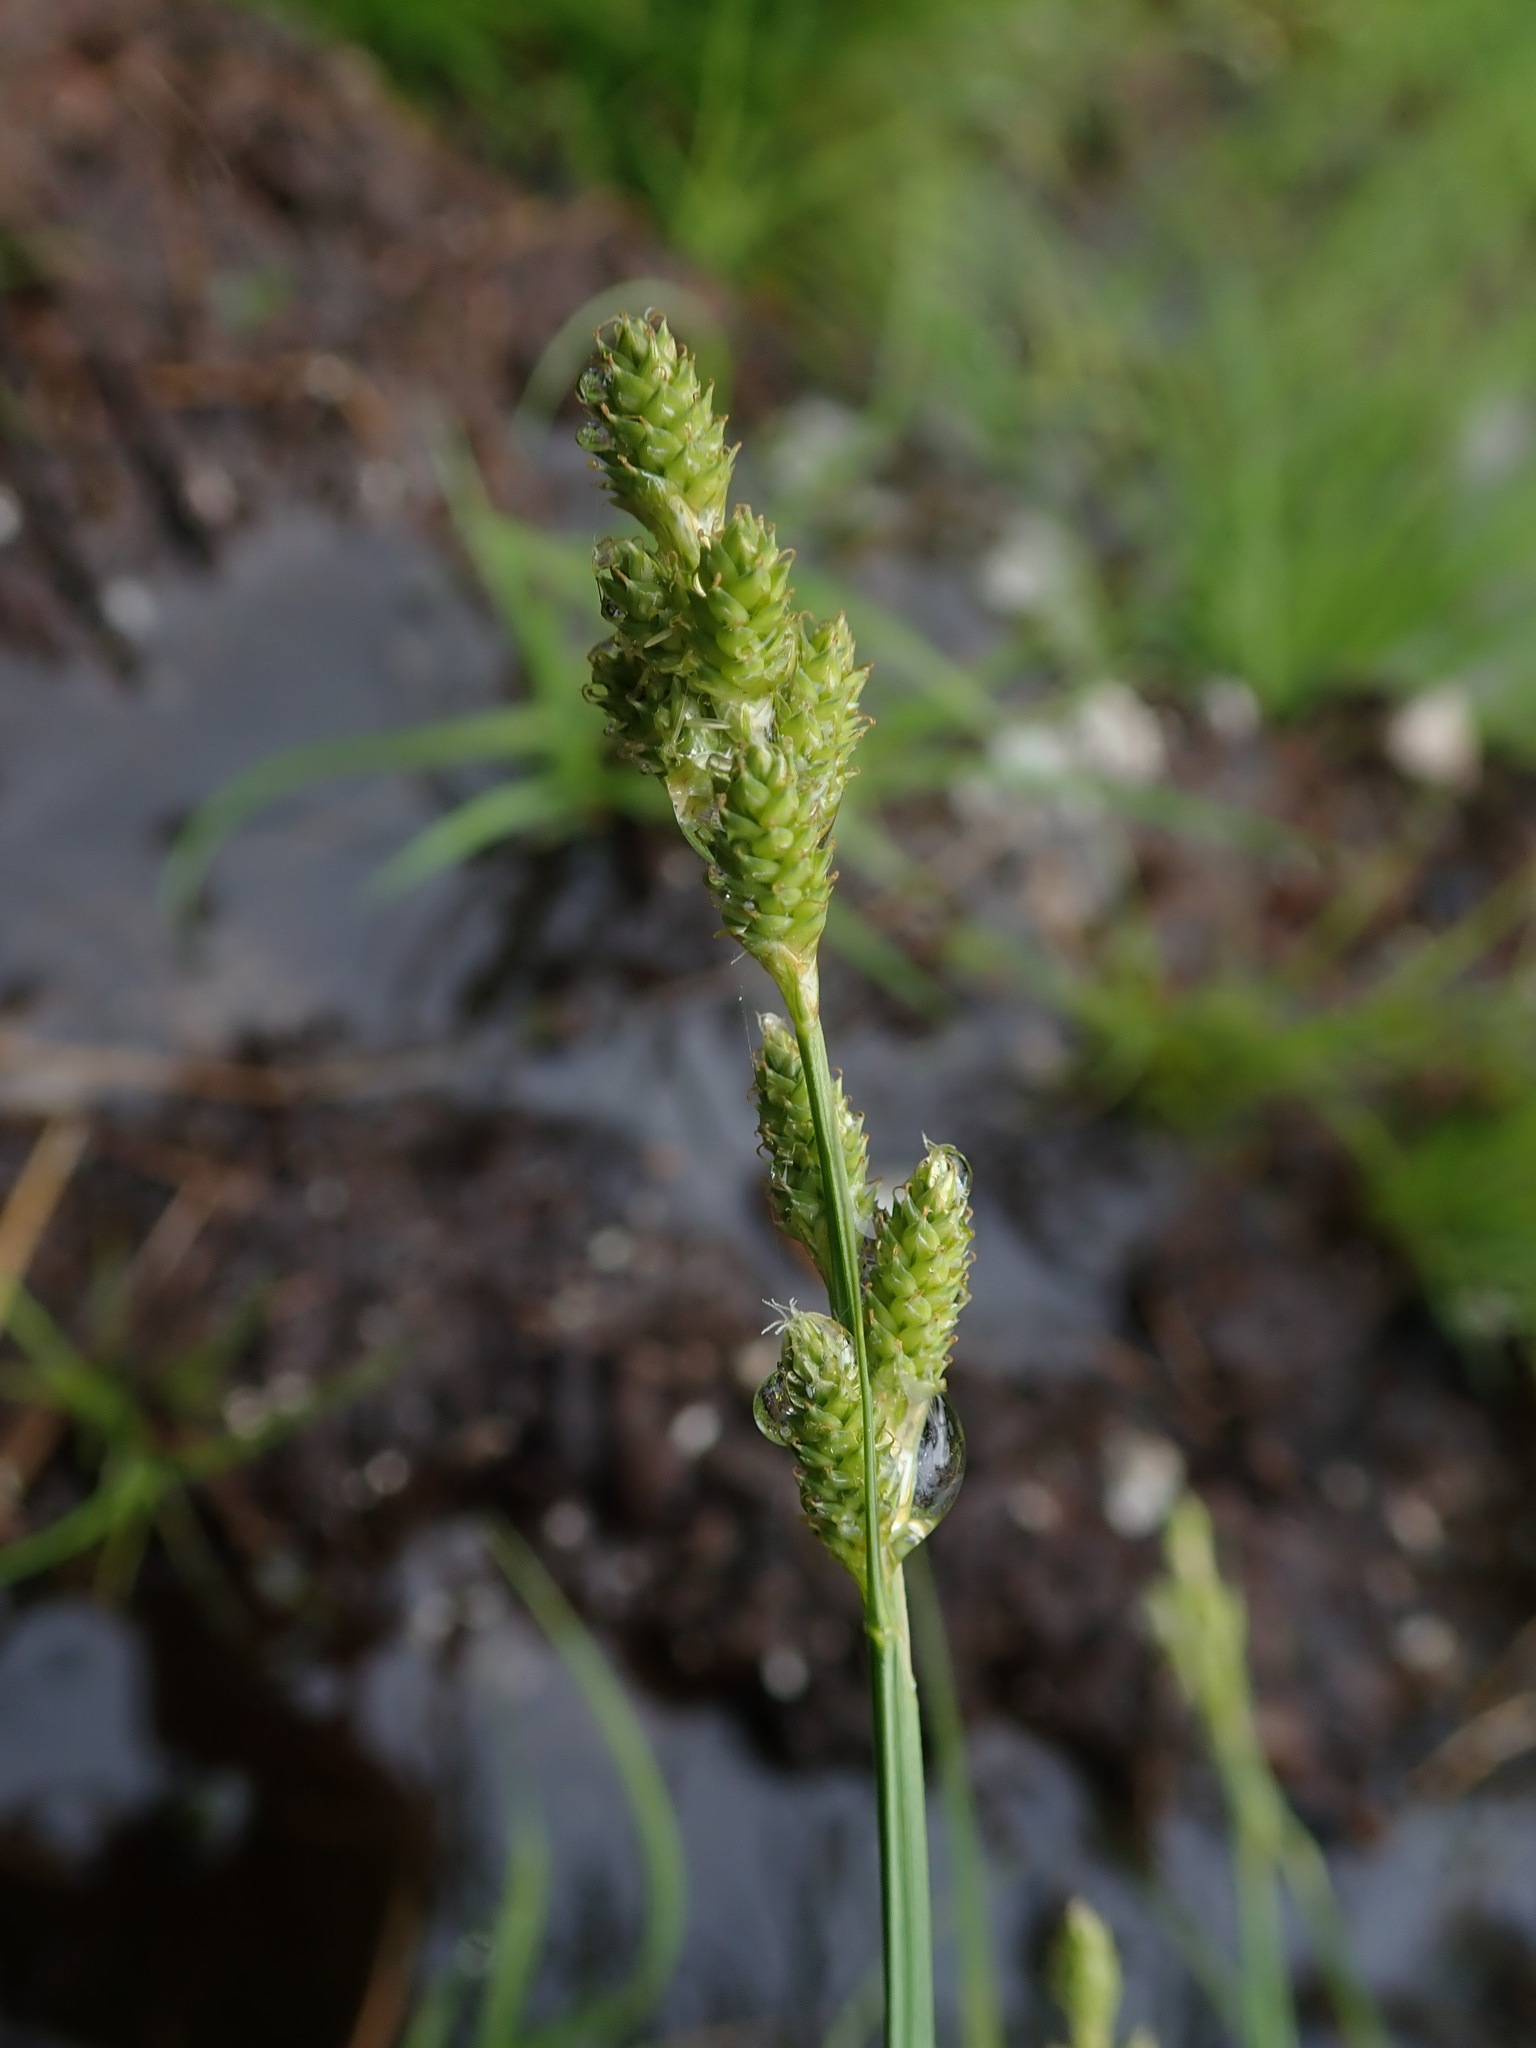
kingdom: Plantae
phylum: Tracheophyta
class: Liliopsida
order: Poales
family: Cyperaceae
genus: Carex
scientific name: Carex canescens
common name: White sedge
